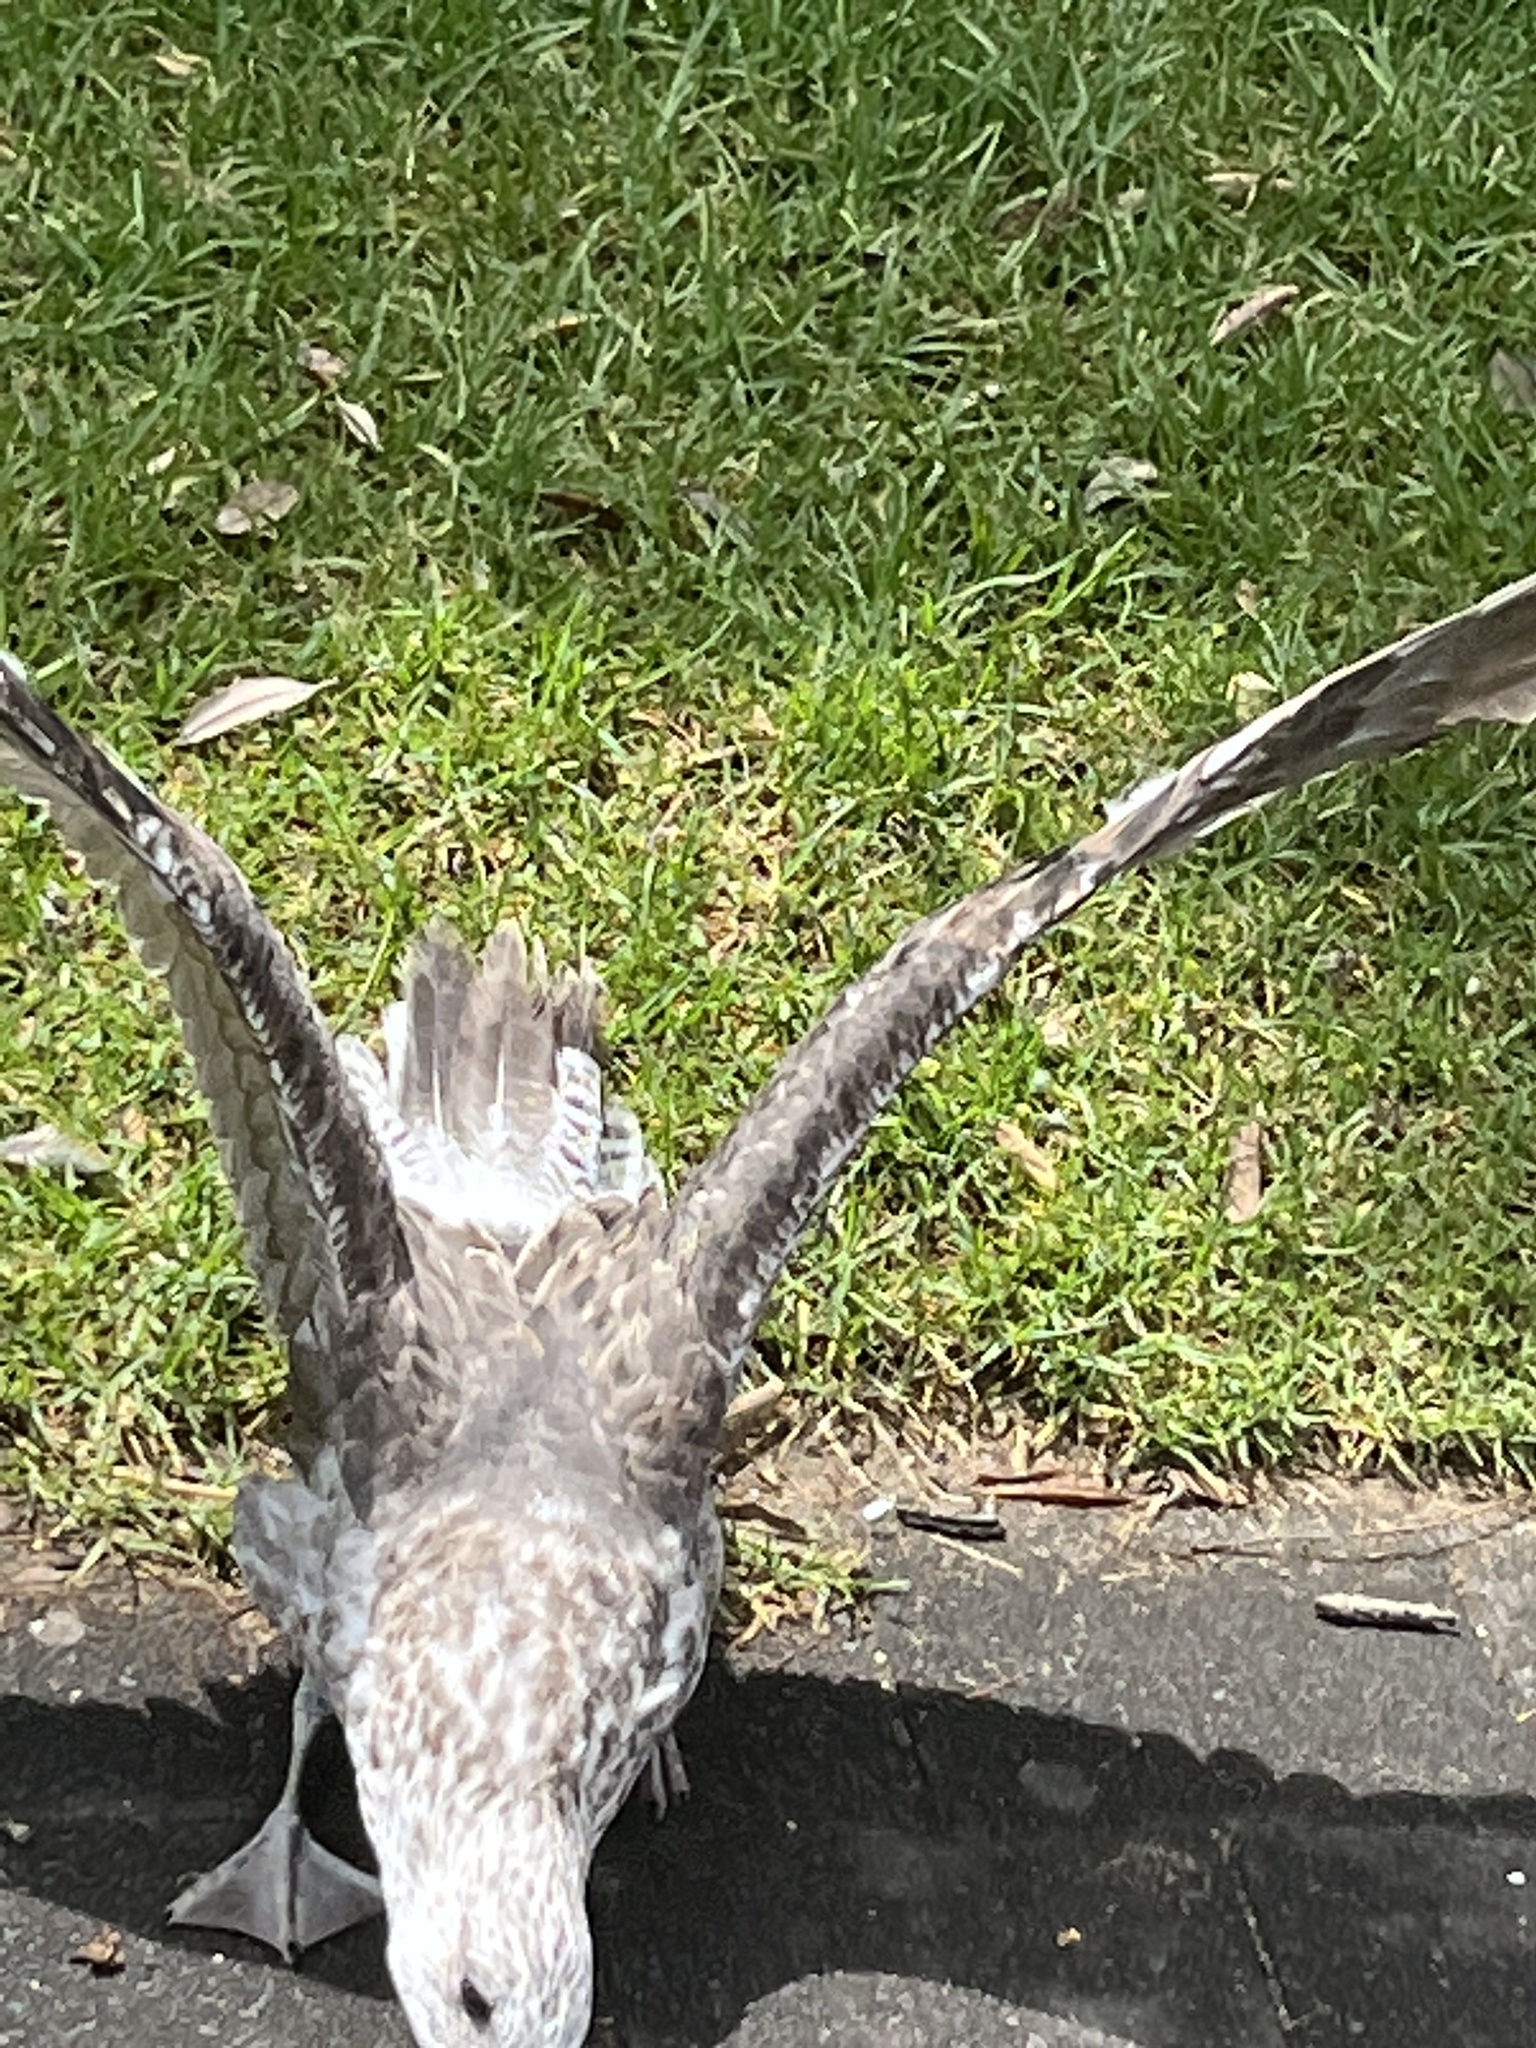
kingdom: Animalia
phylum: Chordata
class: Aves
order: Charadriiformes
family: Laridae
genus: Larus
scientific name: Larus dominicanus
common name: Kelp gull
